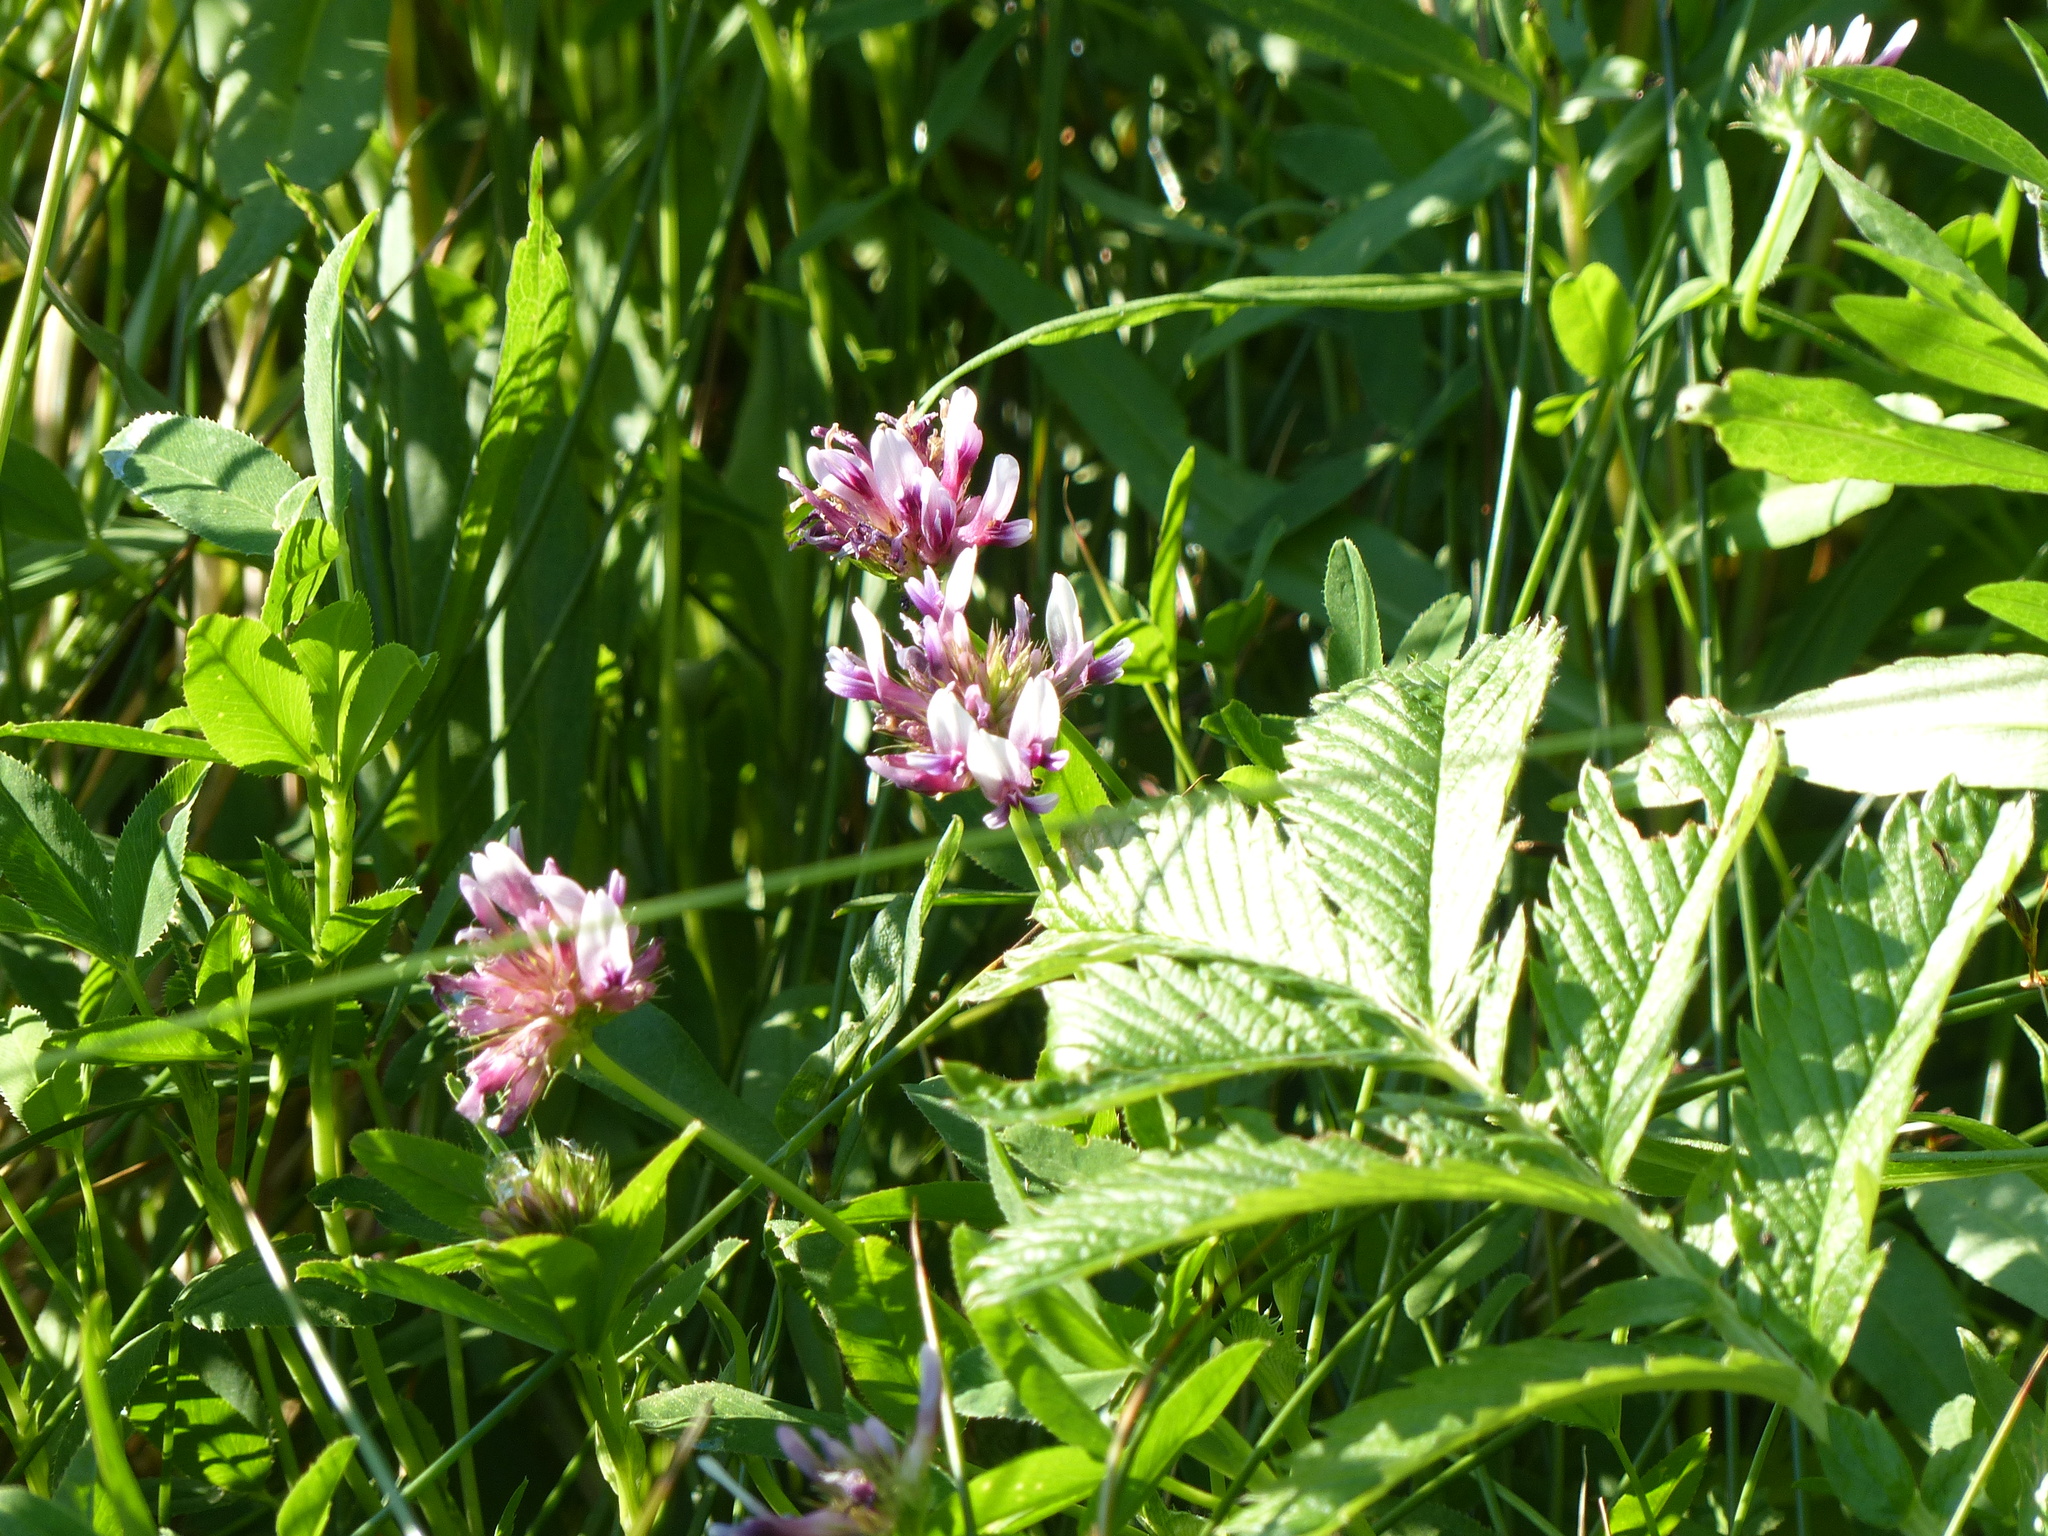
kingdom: Plantae
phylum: Tracheophyta
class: Magnoliopsida
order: Fabales
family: Fabaceae
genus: Trifolium
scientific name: Trifolium wormskioldii
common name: Springbank clover
